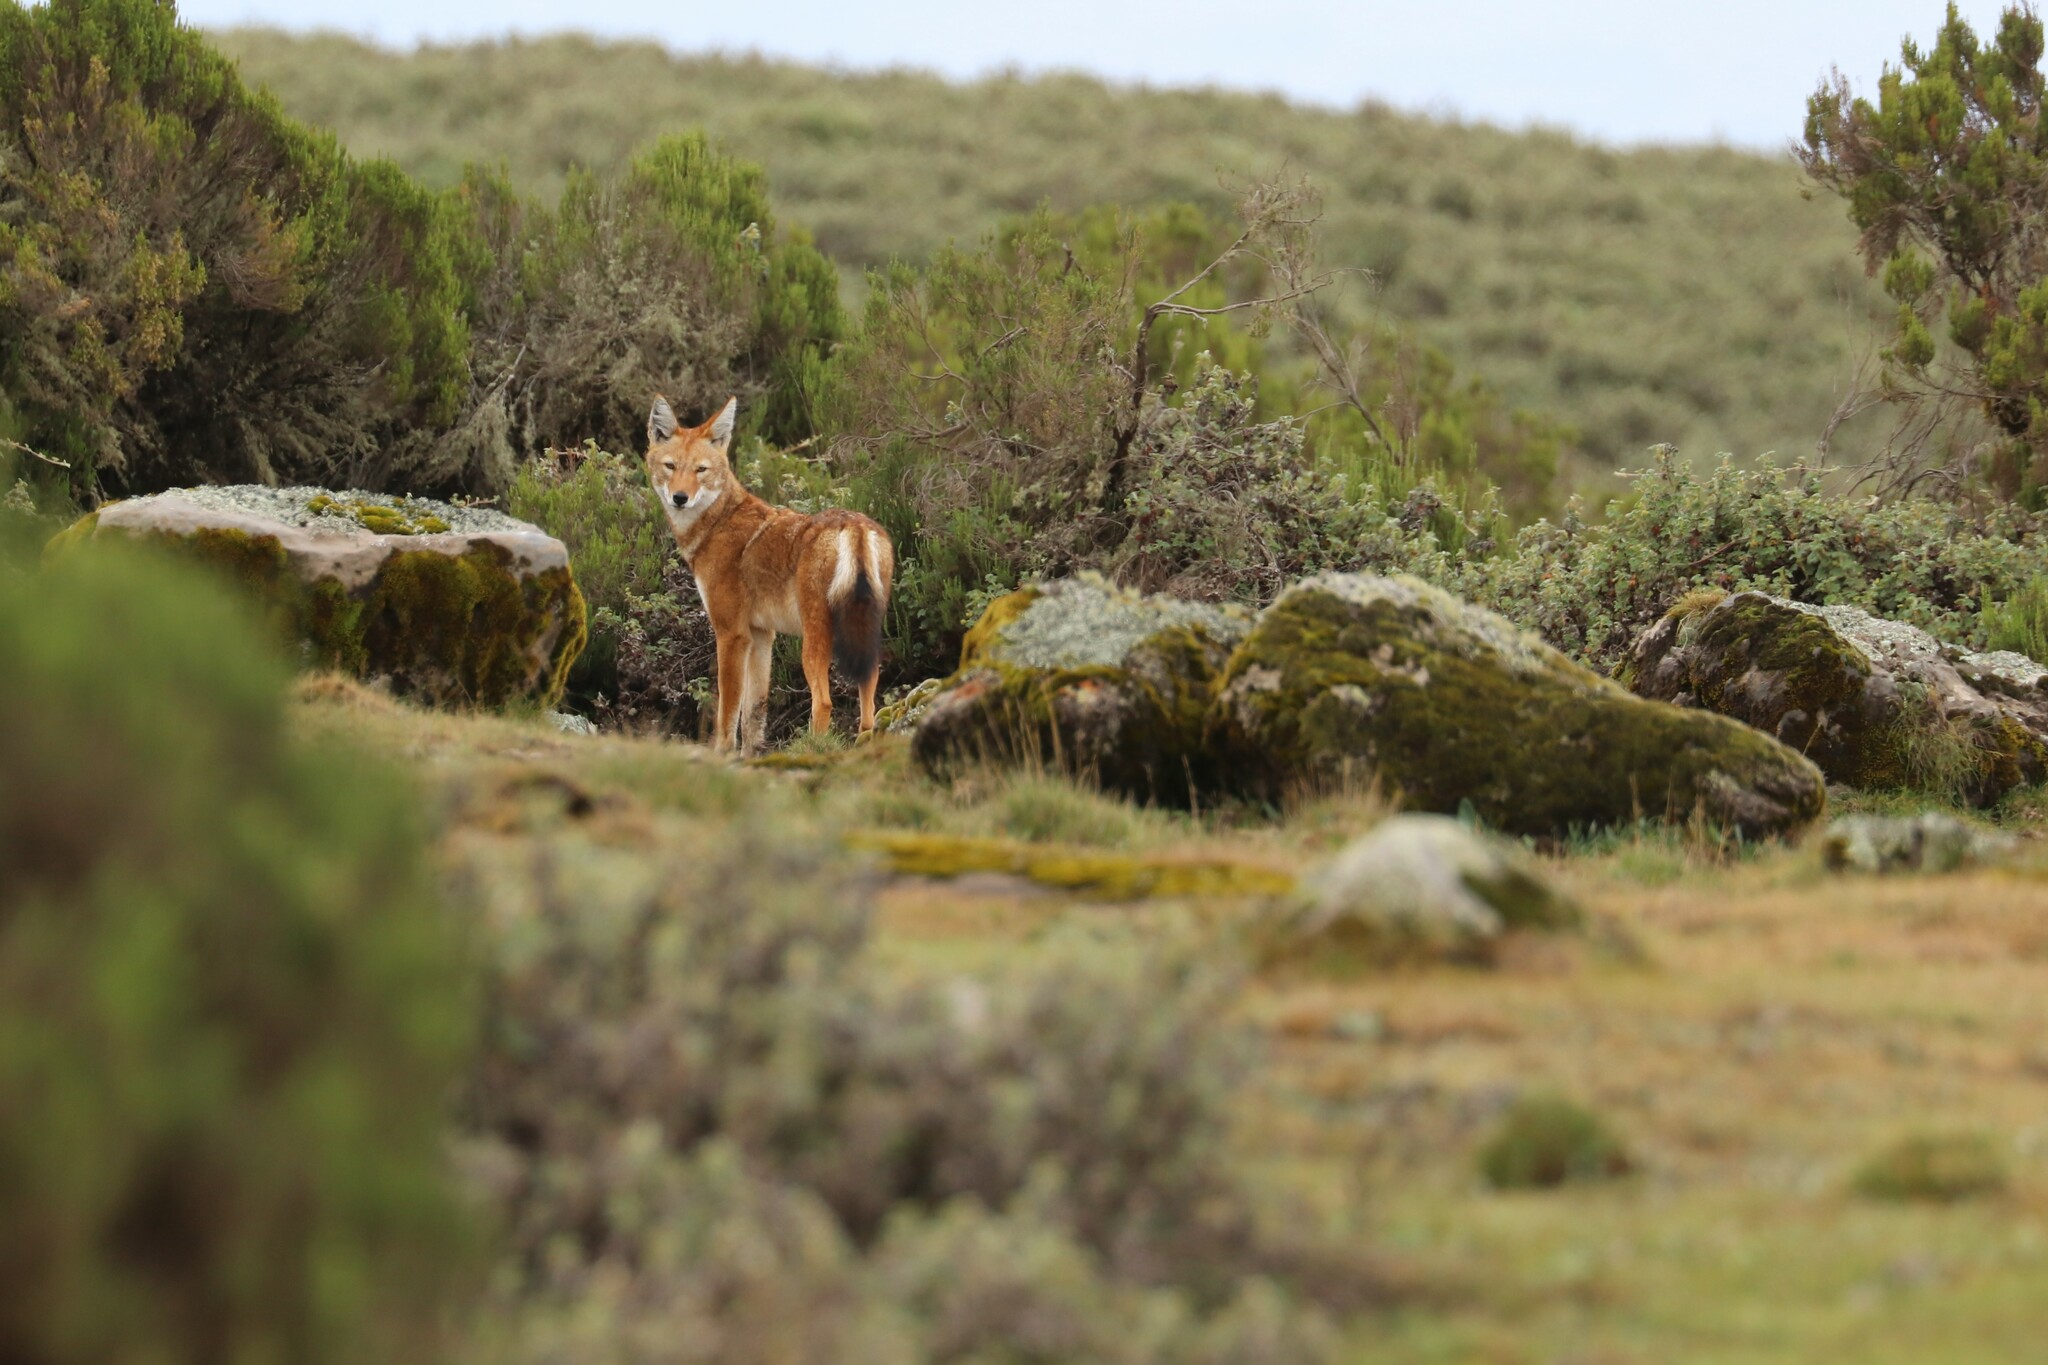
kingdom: Animalia
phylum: Chordata
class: Mammalia
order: Carnivora
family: Canidae
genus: Canis
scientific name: Canis simensis
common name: Ethiopian wolf
